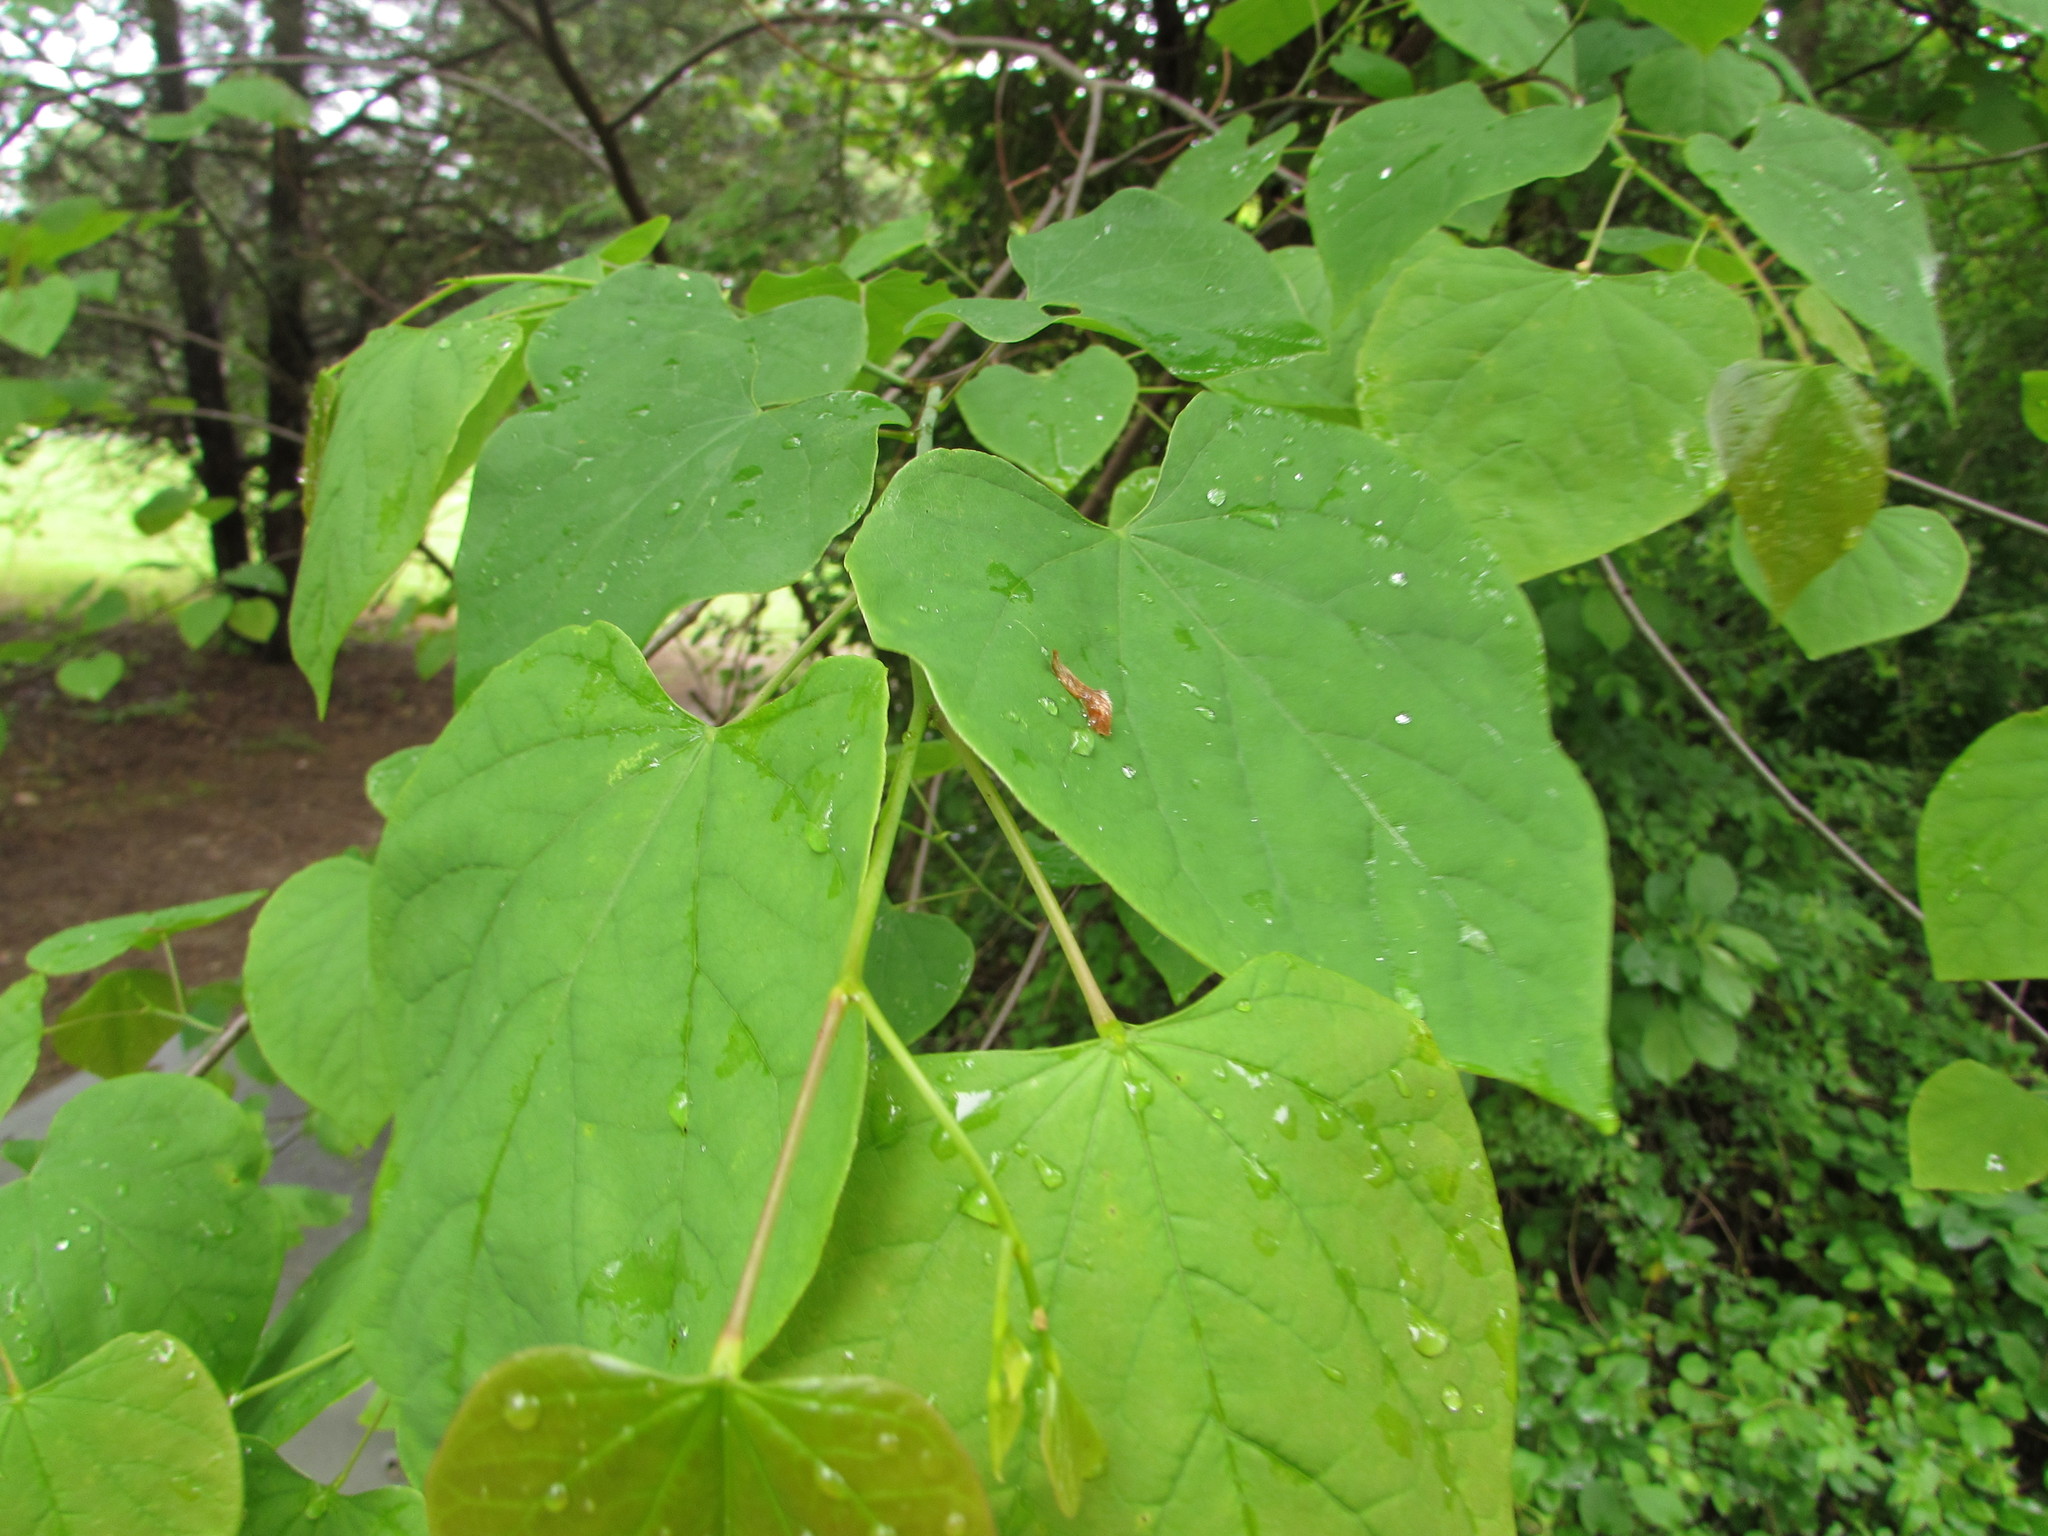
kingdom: Plantae
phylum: Tracheophyta
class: Magnoliopsida
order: Fabales
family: Fabaceae
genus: Cercis
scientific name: Cercis canadensis
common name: Eastern redbud
